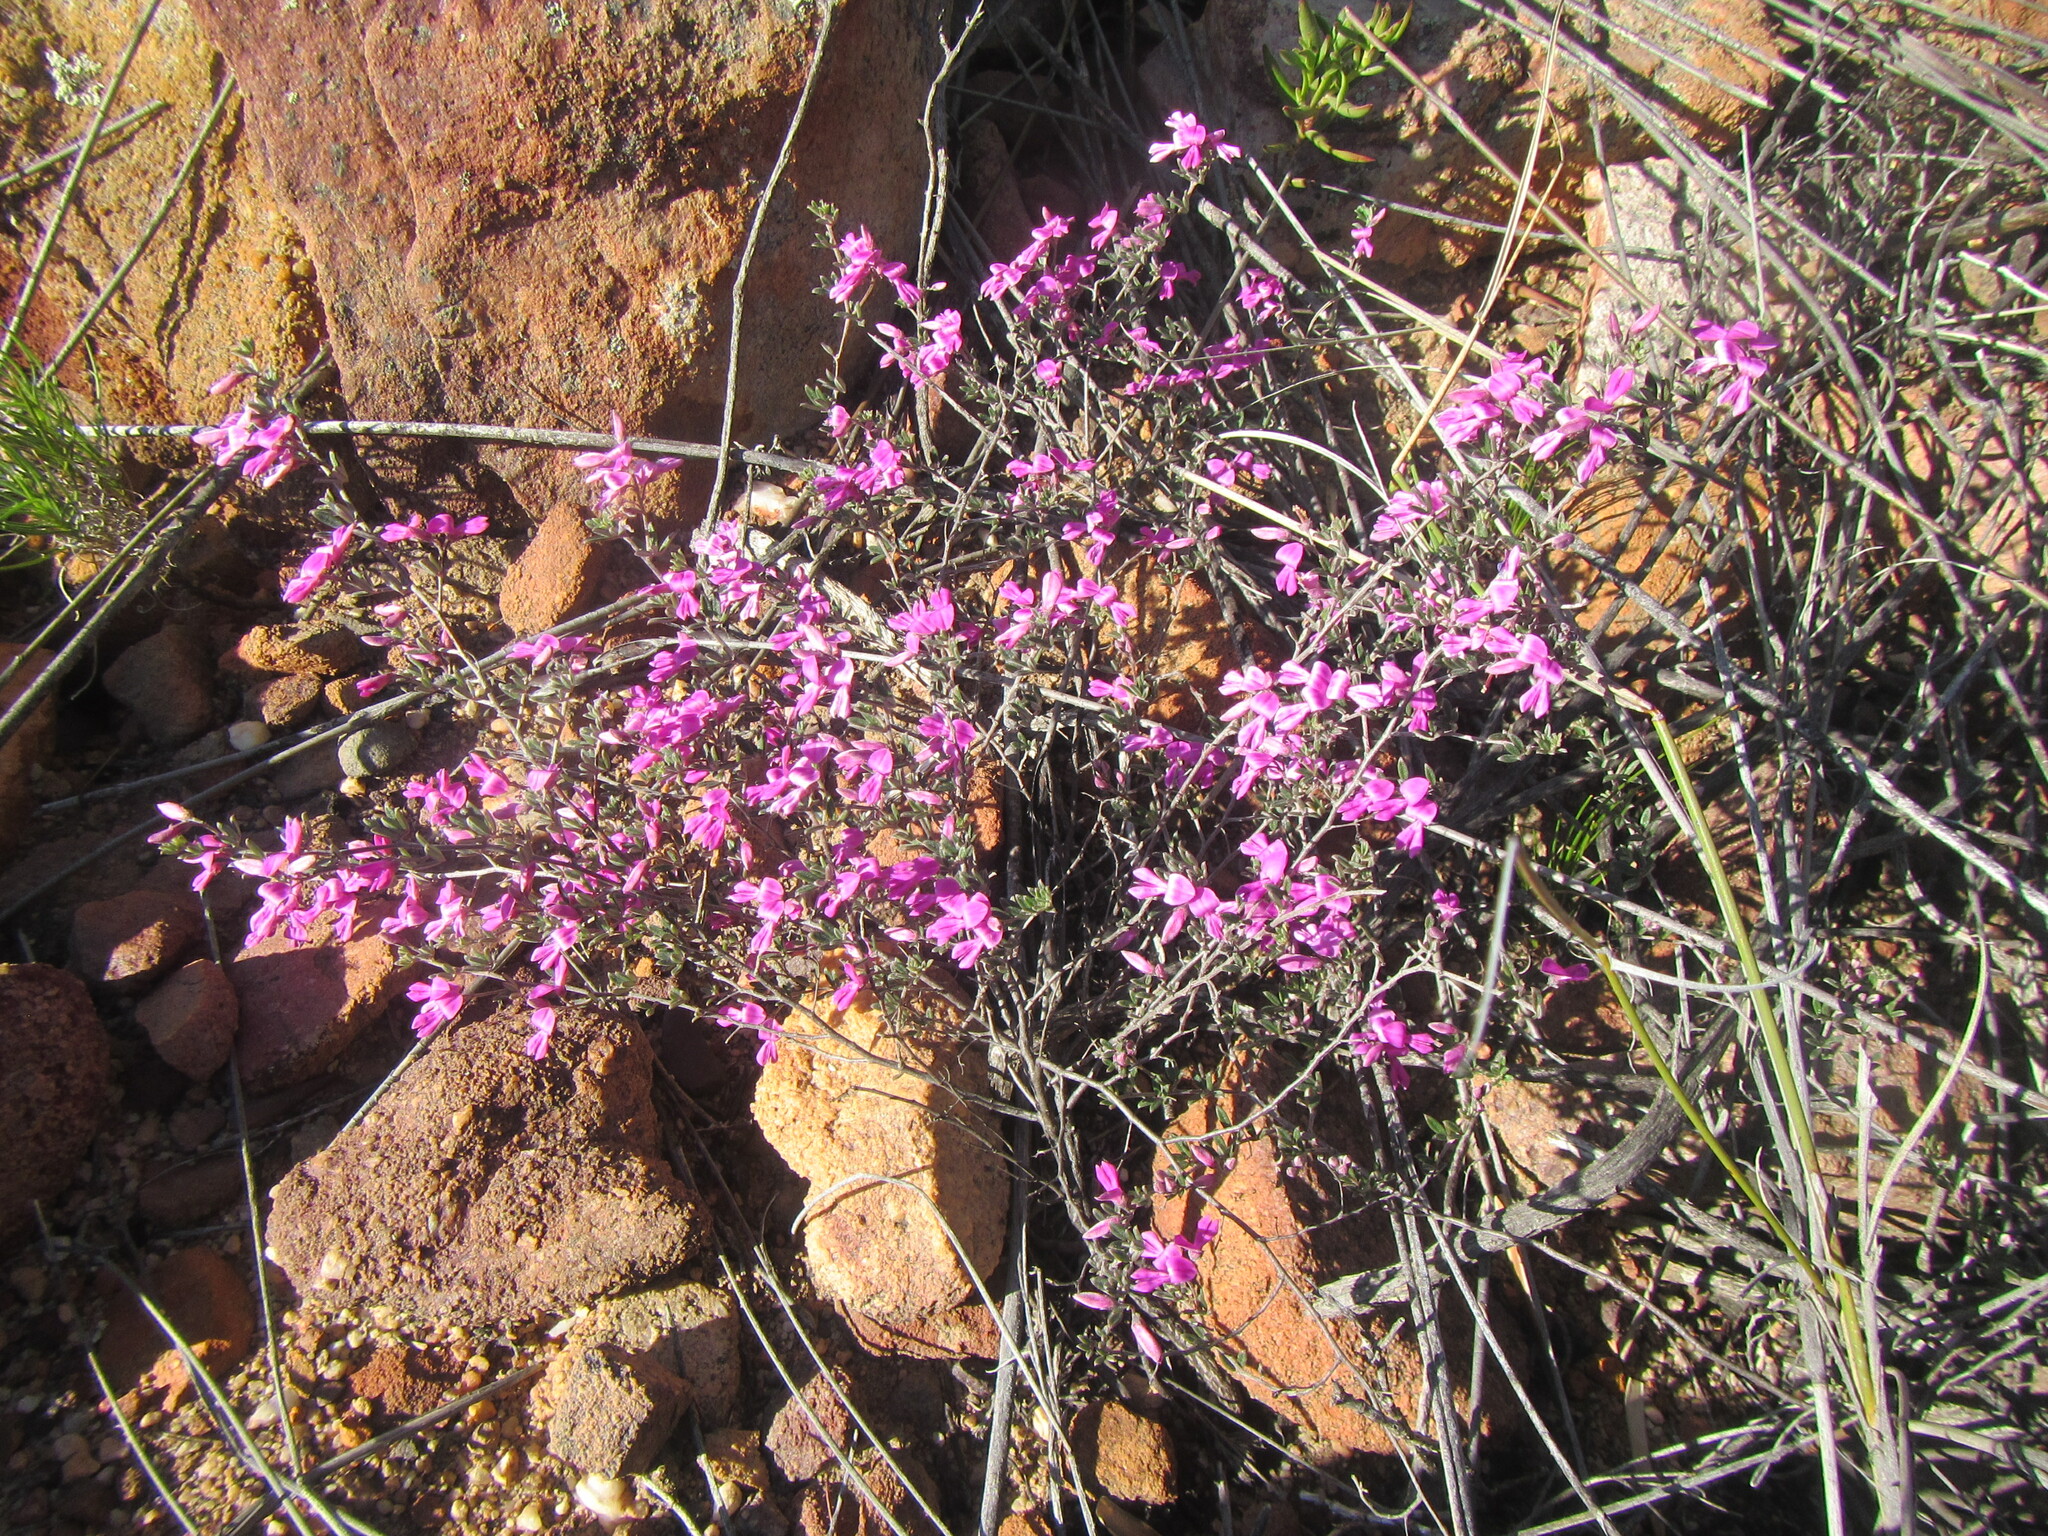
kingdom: Plantae
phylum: Tracheophyta
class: Magnoliopsida
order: Fabales
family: Fabaceae
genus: Indigofera
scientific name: Indigofera pilgeriana
